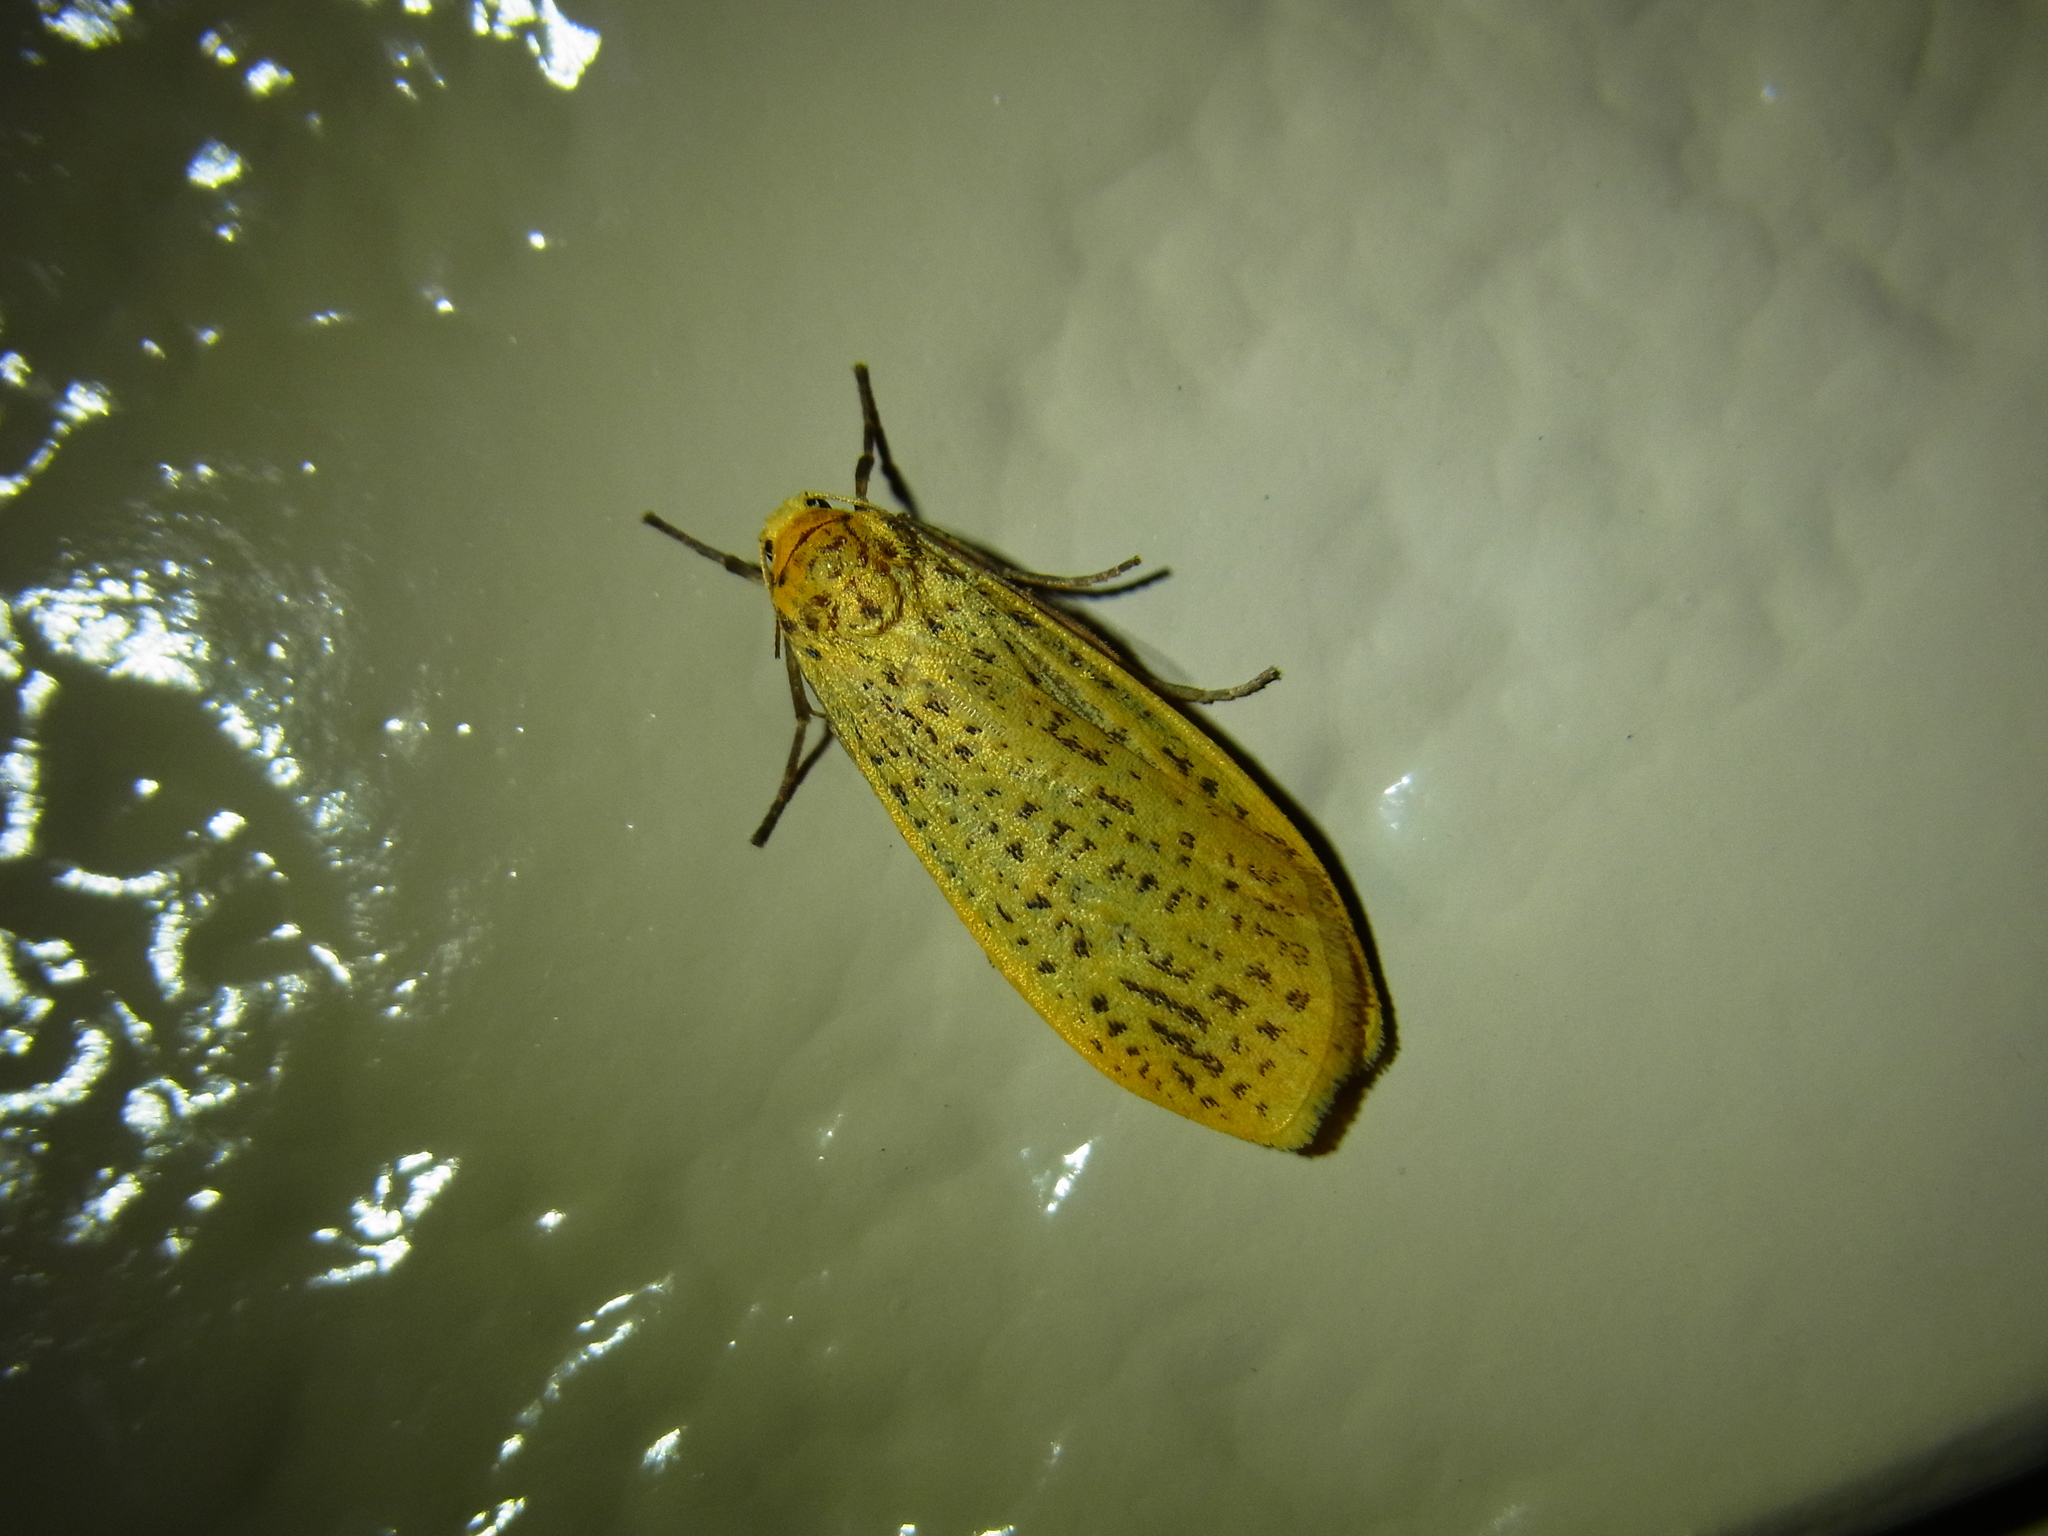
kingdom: Animalia
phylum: Arthropoda
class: Insecta
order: Lepidoptera
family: Erebidae
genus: Dolgoma
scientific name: Dolgoma cribrata
